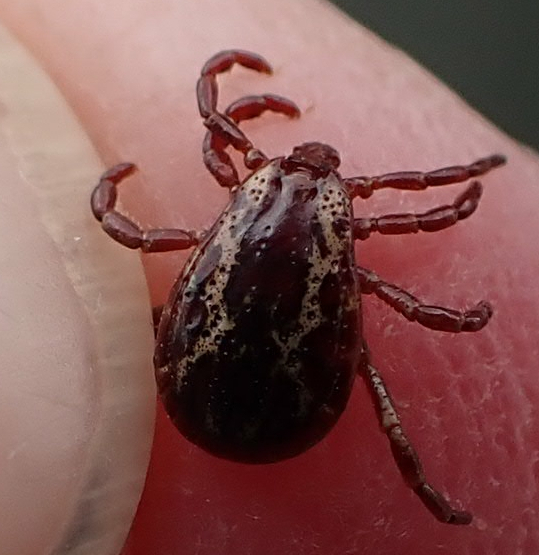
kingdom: Animalia
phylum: Arthropoda
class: Arachnida
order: Ixodida
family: Ixodidae
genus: Dermacentor
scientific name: Dermacentor variabilis
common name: American dog tick
